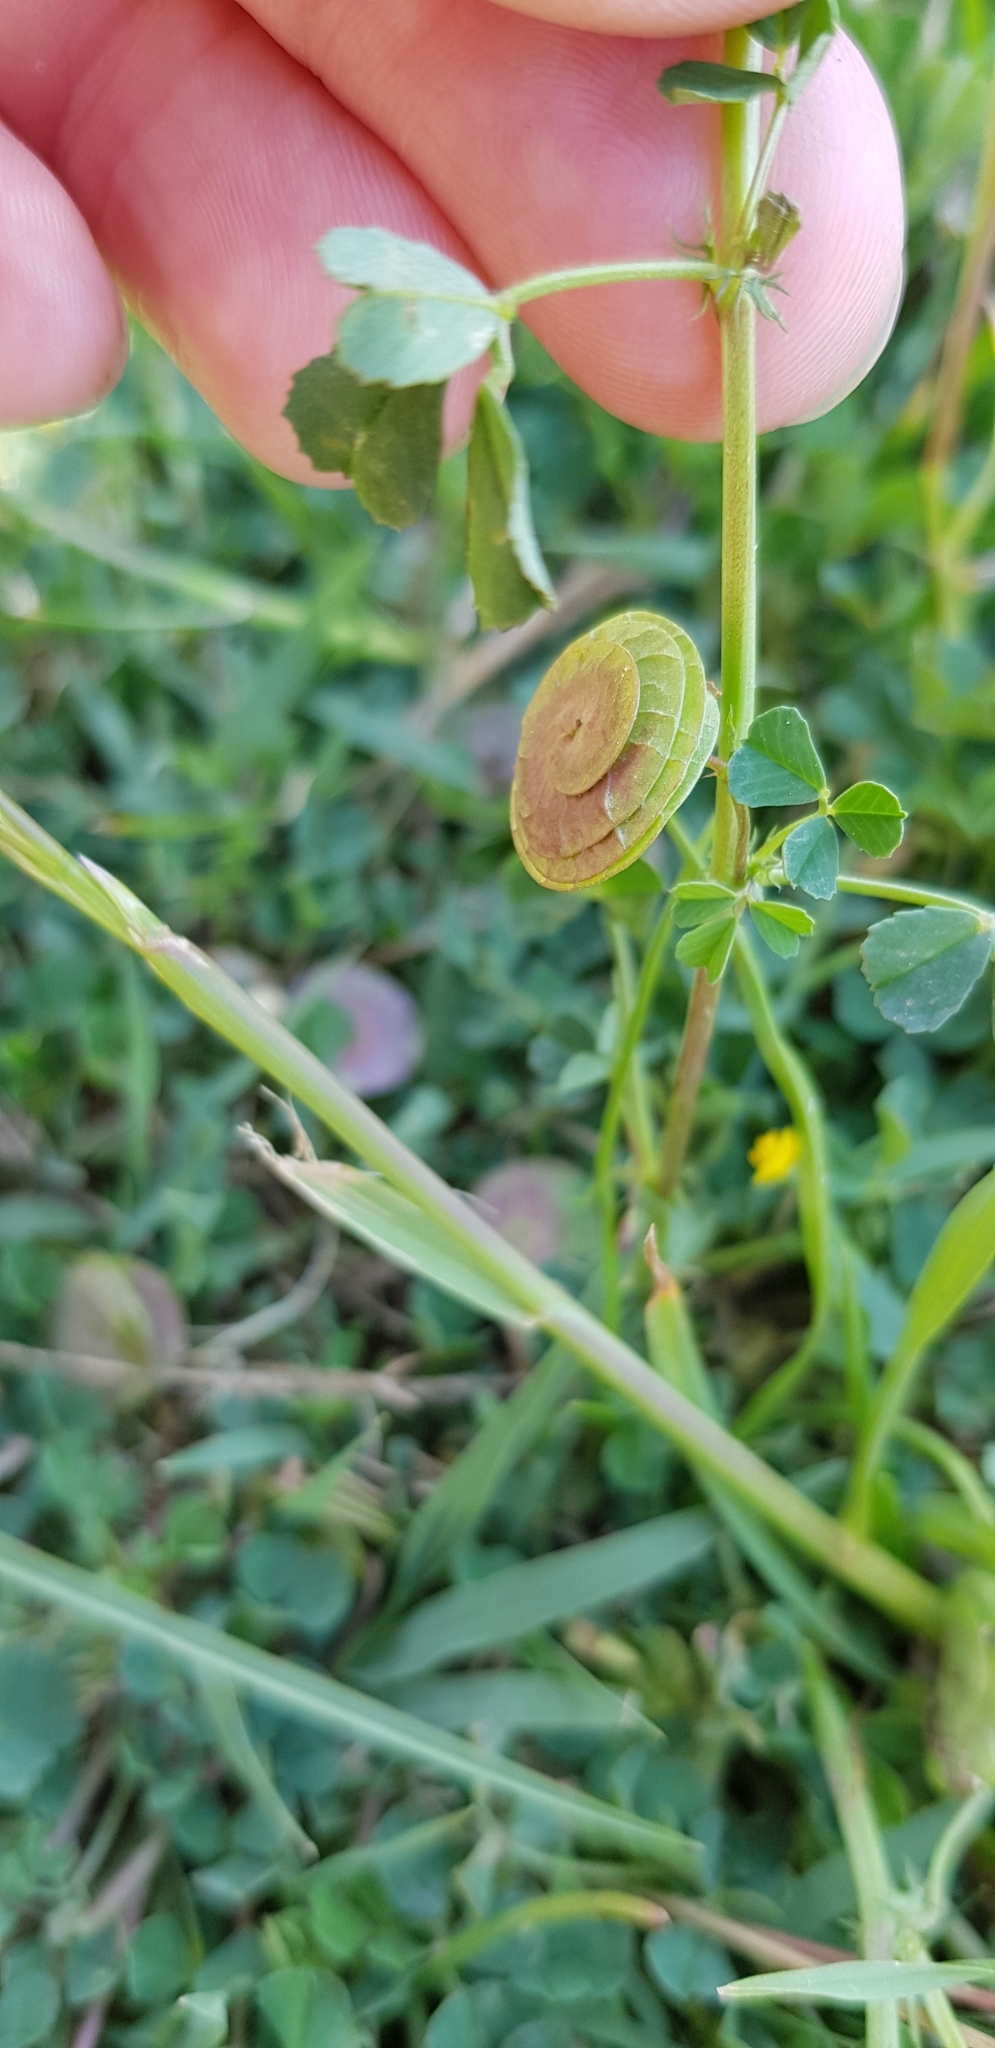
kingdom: Plantae
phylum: Tracheophyta
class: Magnoliopsida
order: Fabales
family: Fabaceae
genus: Medicago
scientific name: Medicago orbicularis
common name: Button medick
